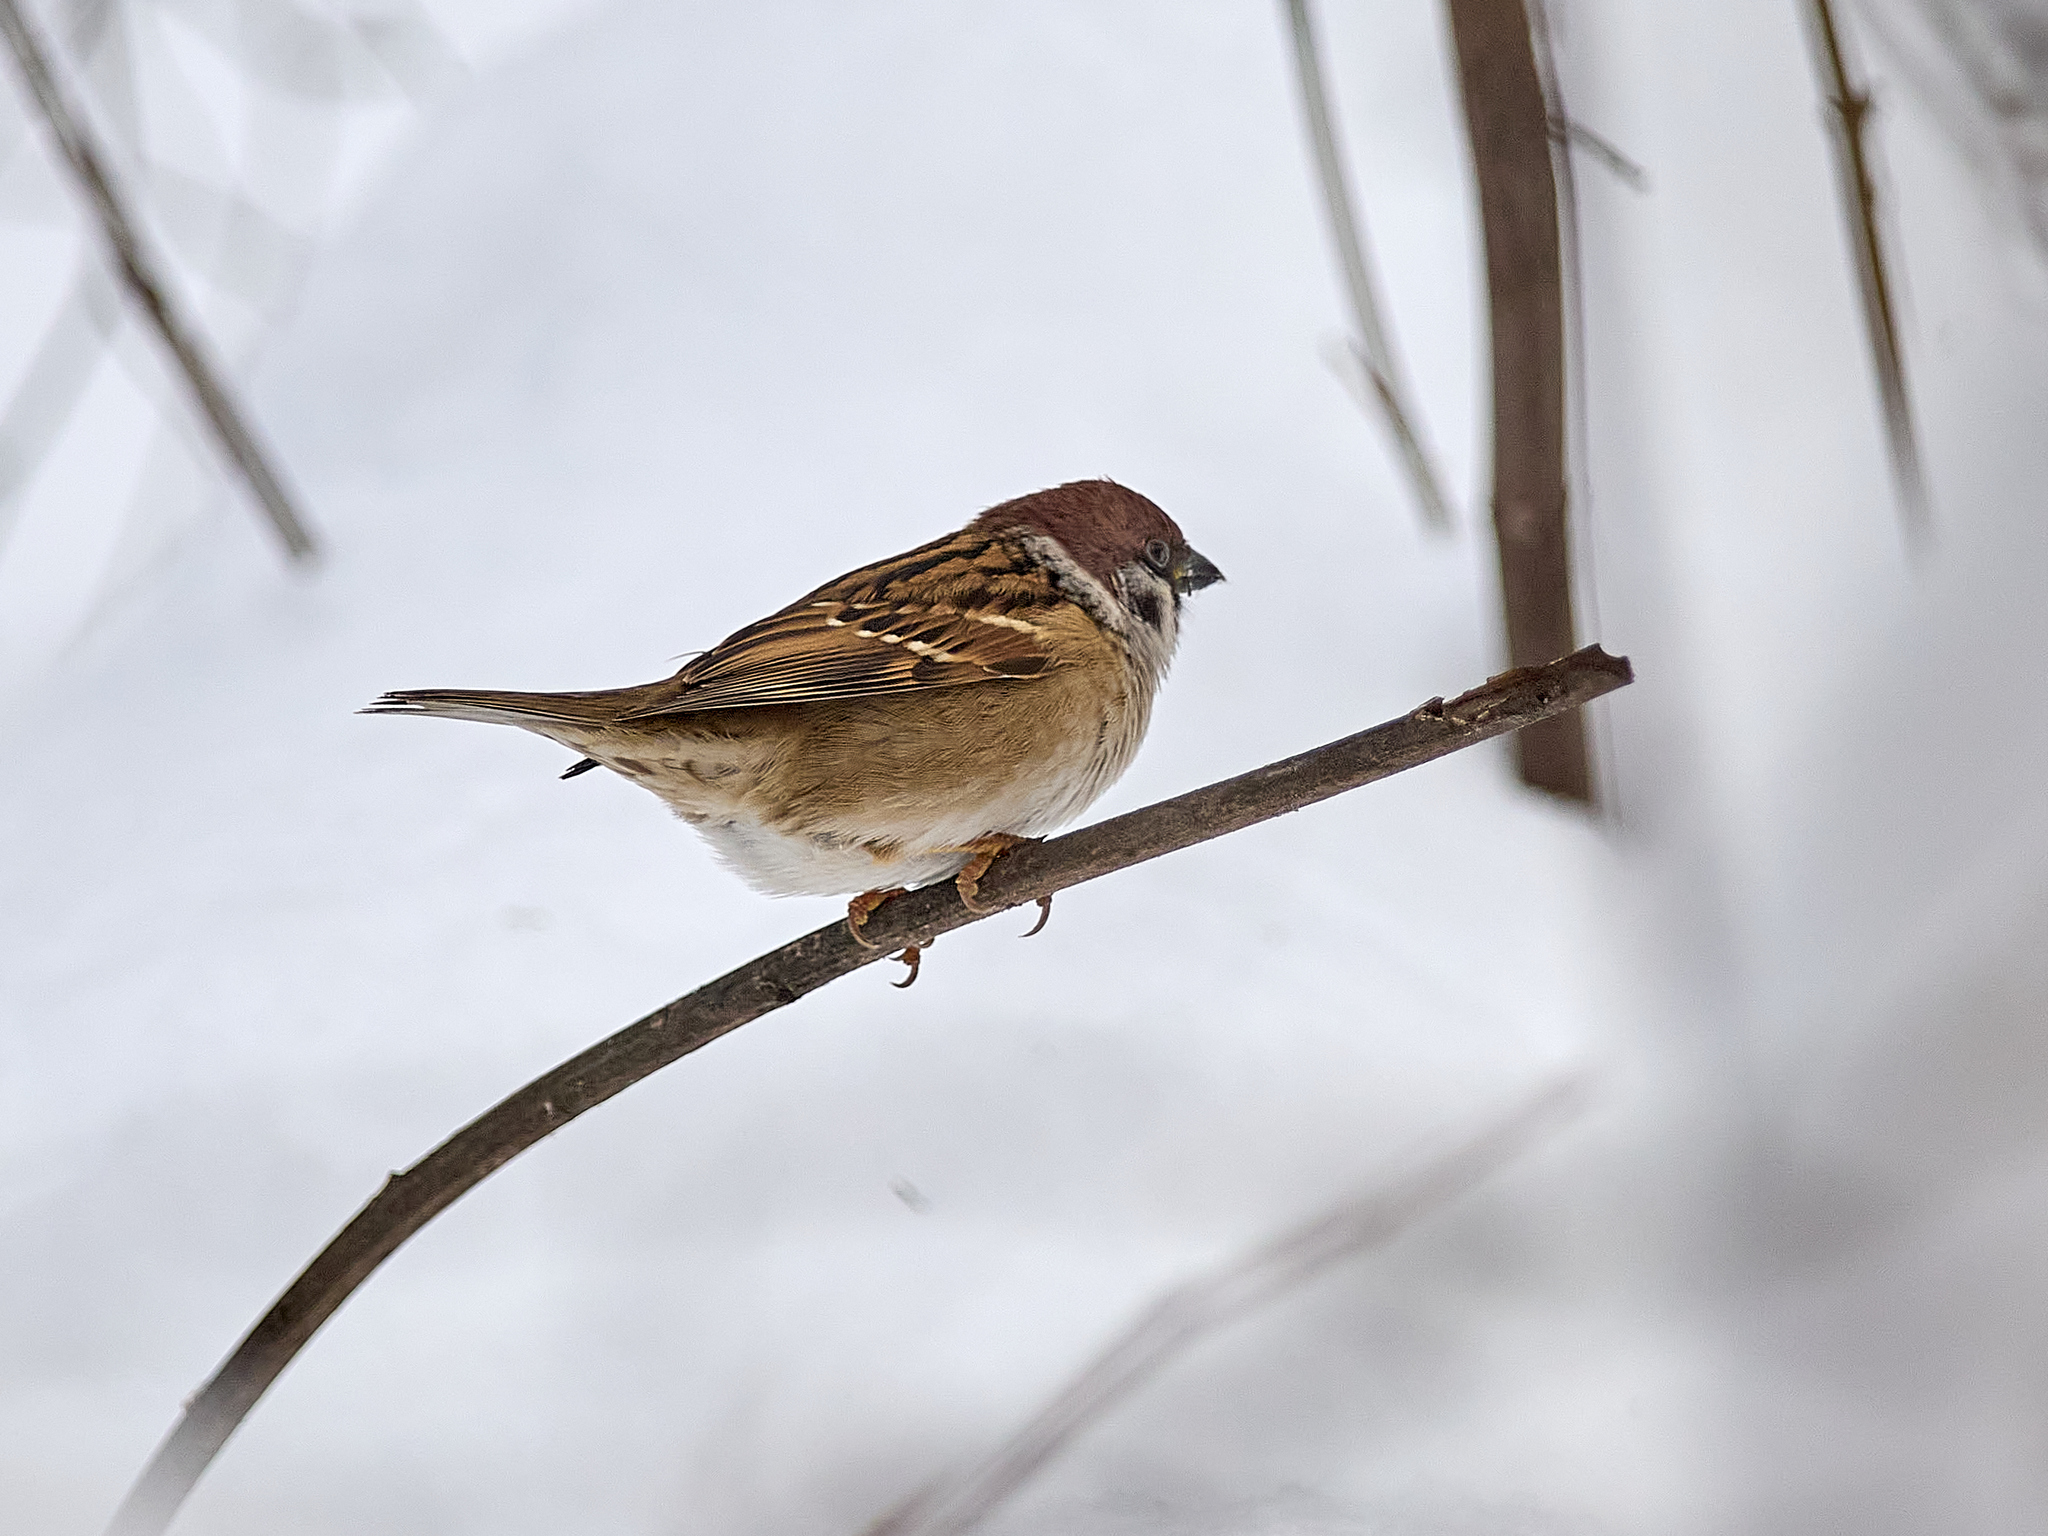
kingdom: Animalia
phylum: Chordata
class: Aves
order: Passeriformes
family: Passeridae
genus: Passer
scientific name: Passer montanus
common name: Eurasian tree sparrow
